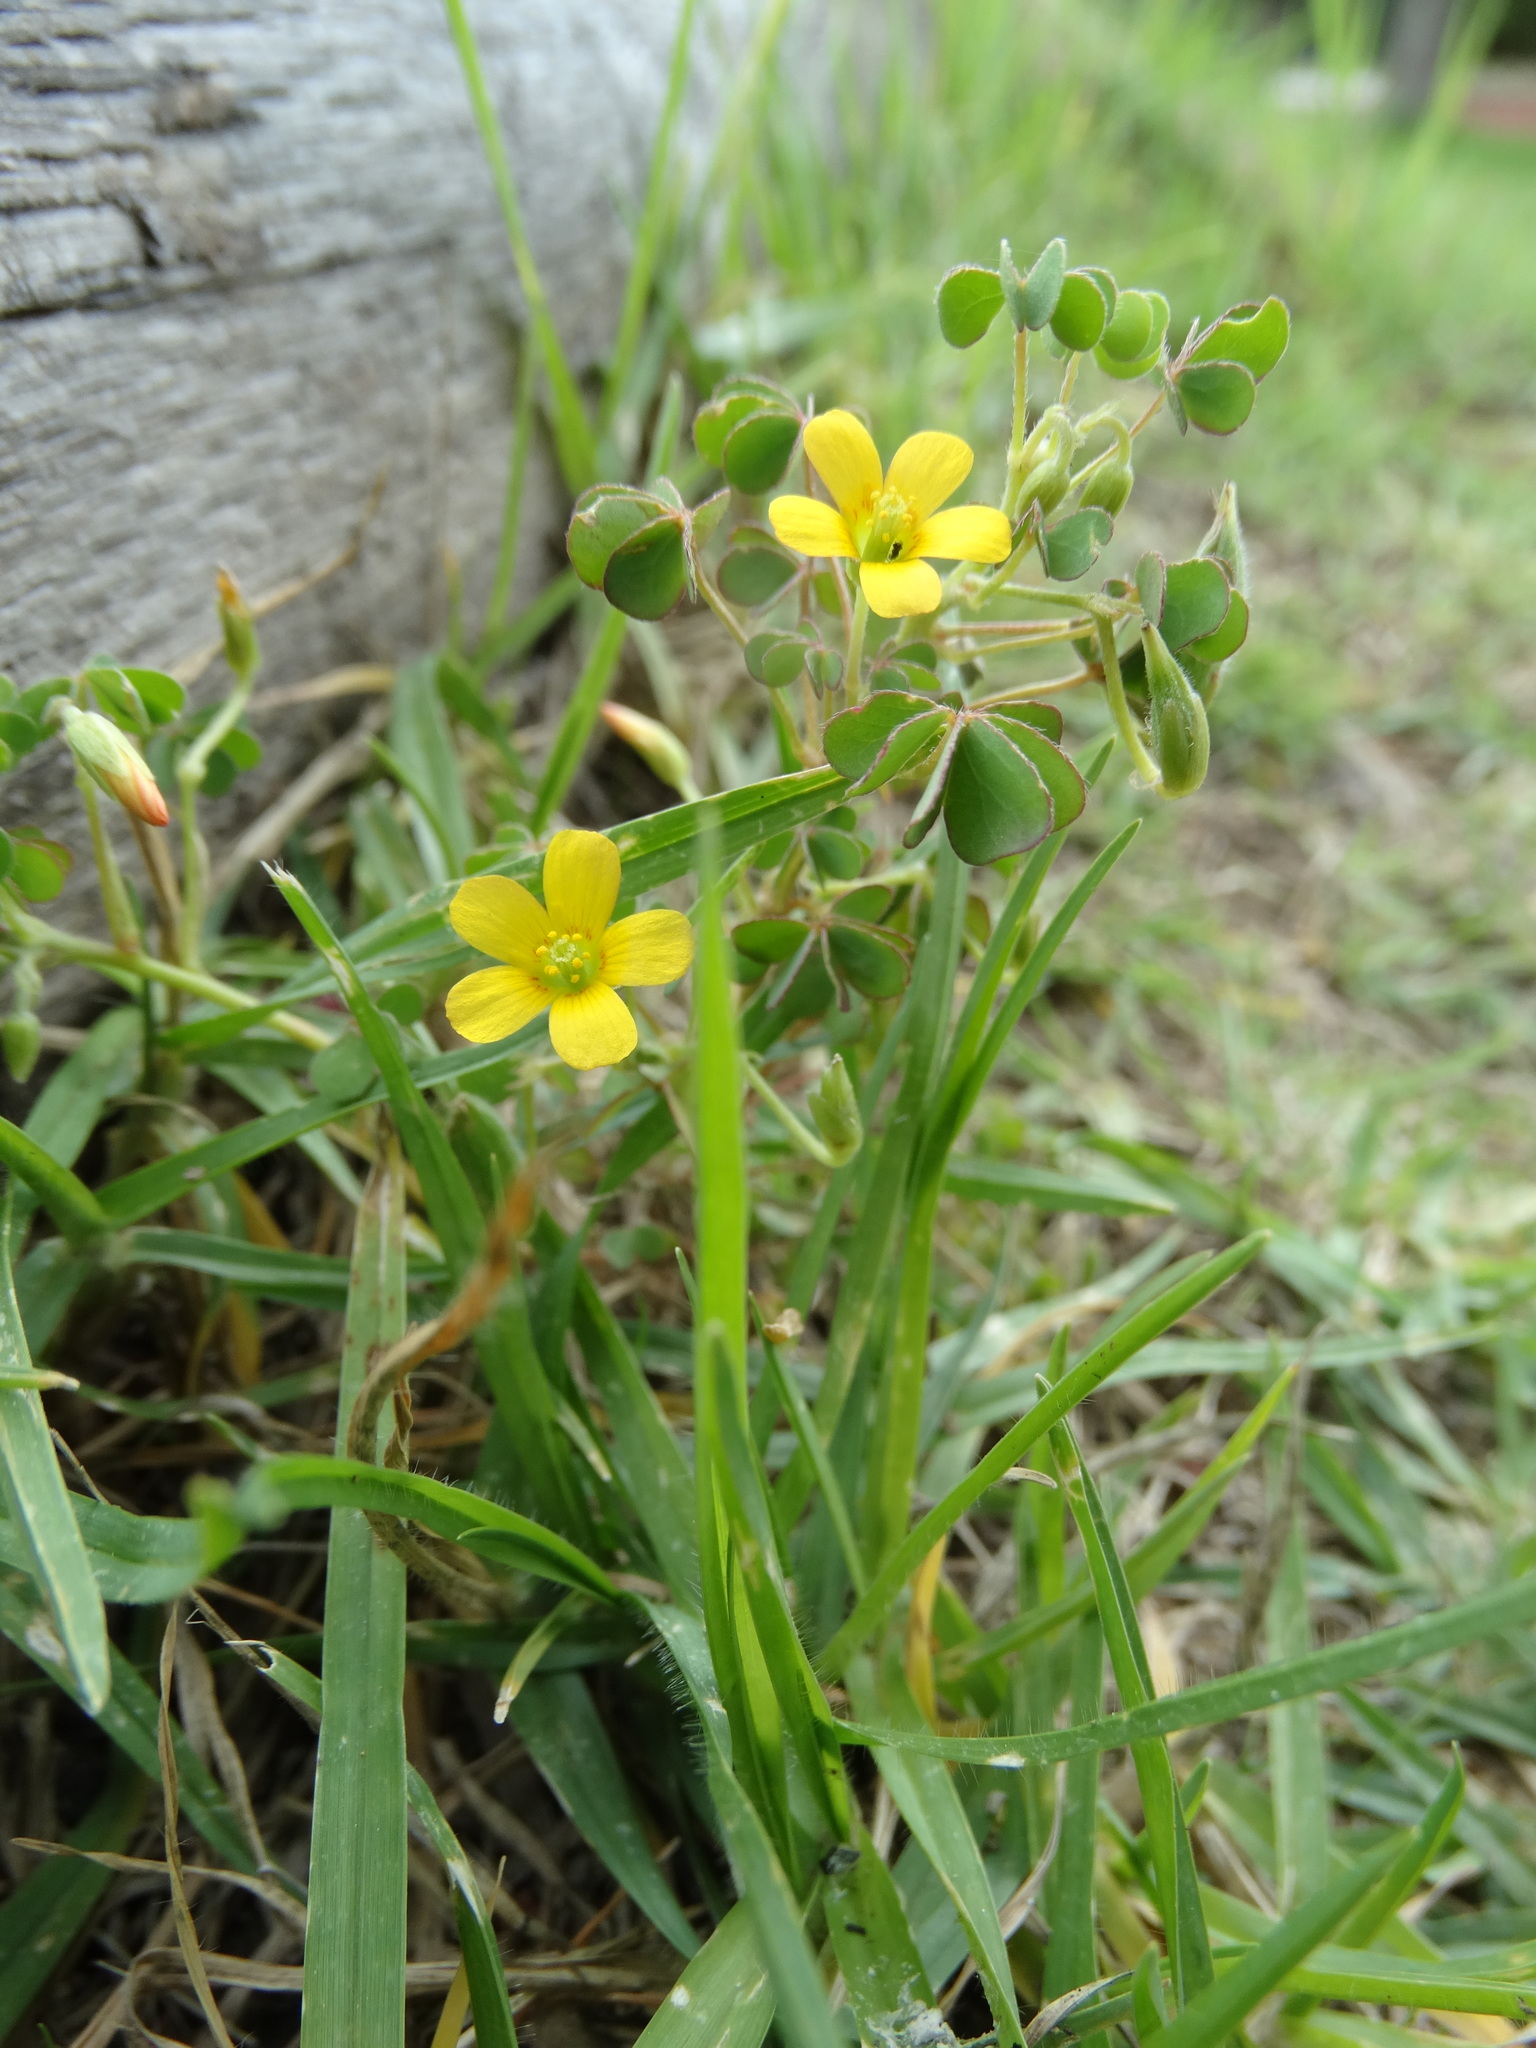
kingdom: Plantae
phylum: Tracheophyta
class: Magnoliopsida
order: Oxalidales
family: Oxalidaceae
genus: Oxalis
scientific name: Oxalis corniculata
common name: Procumbent yellow-sorrel
